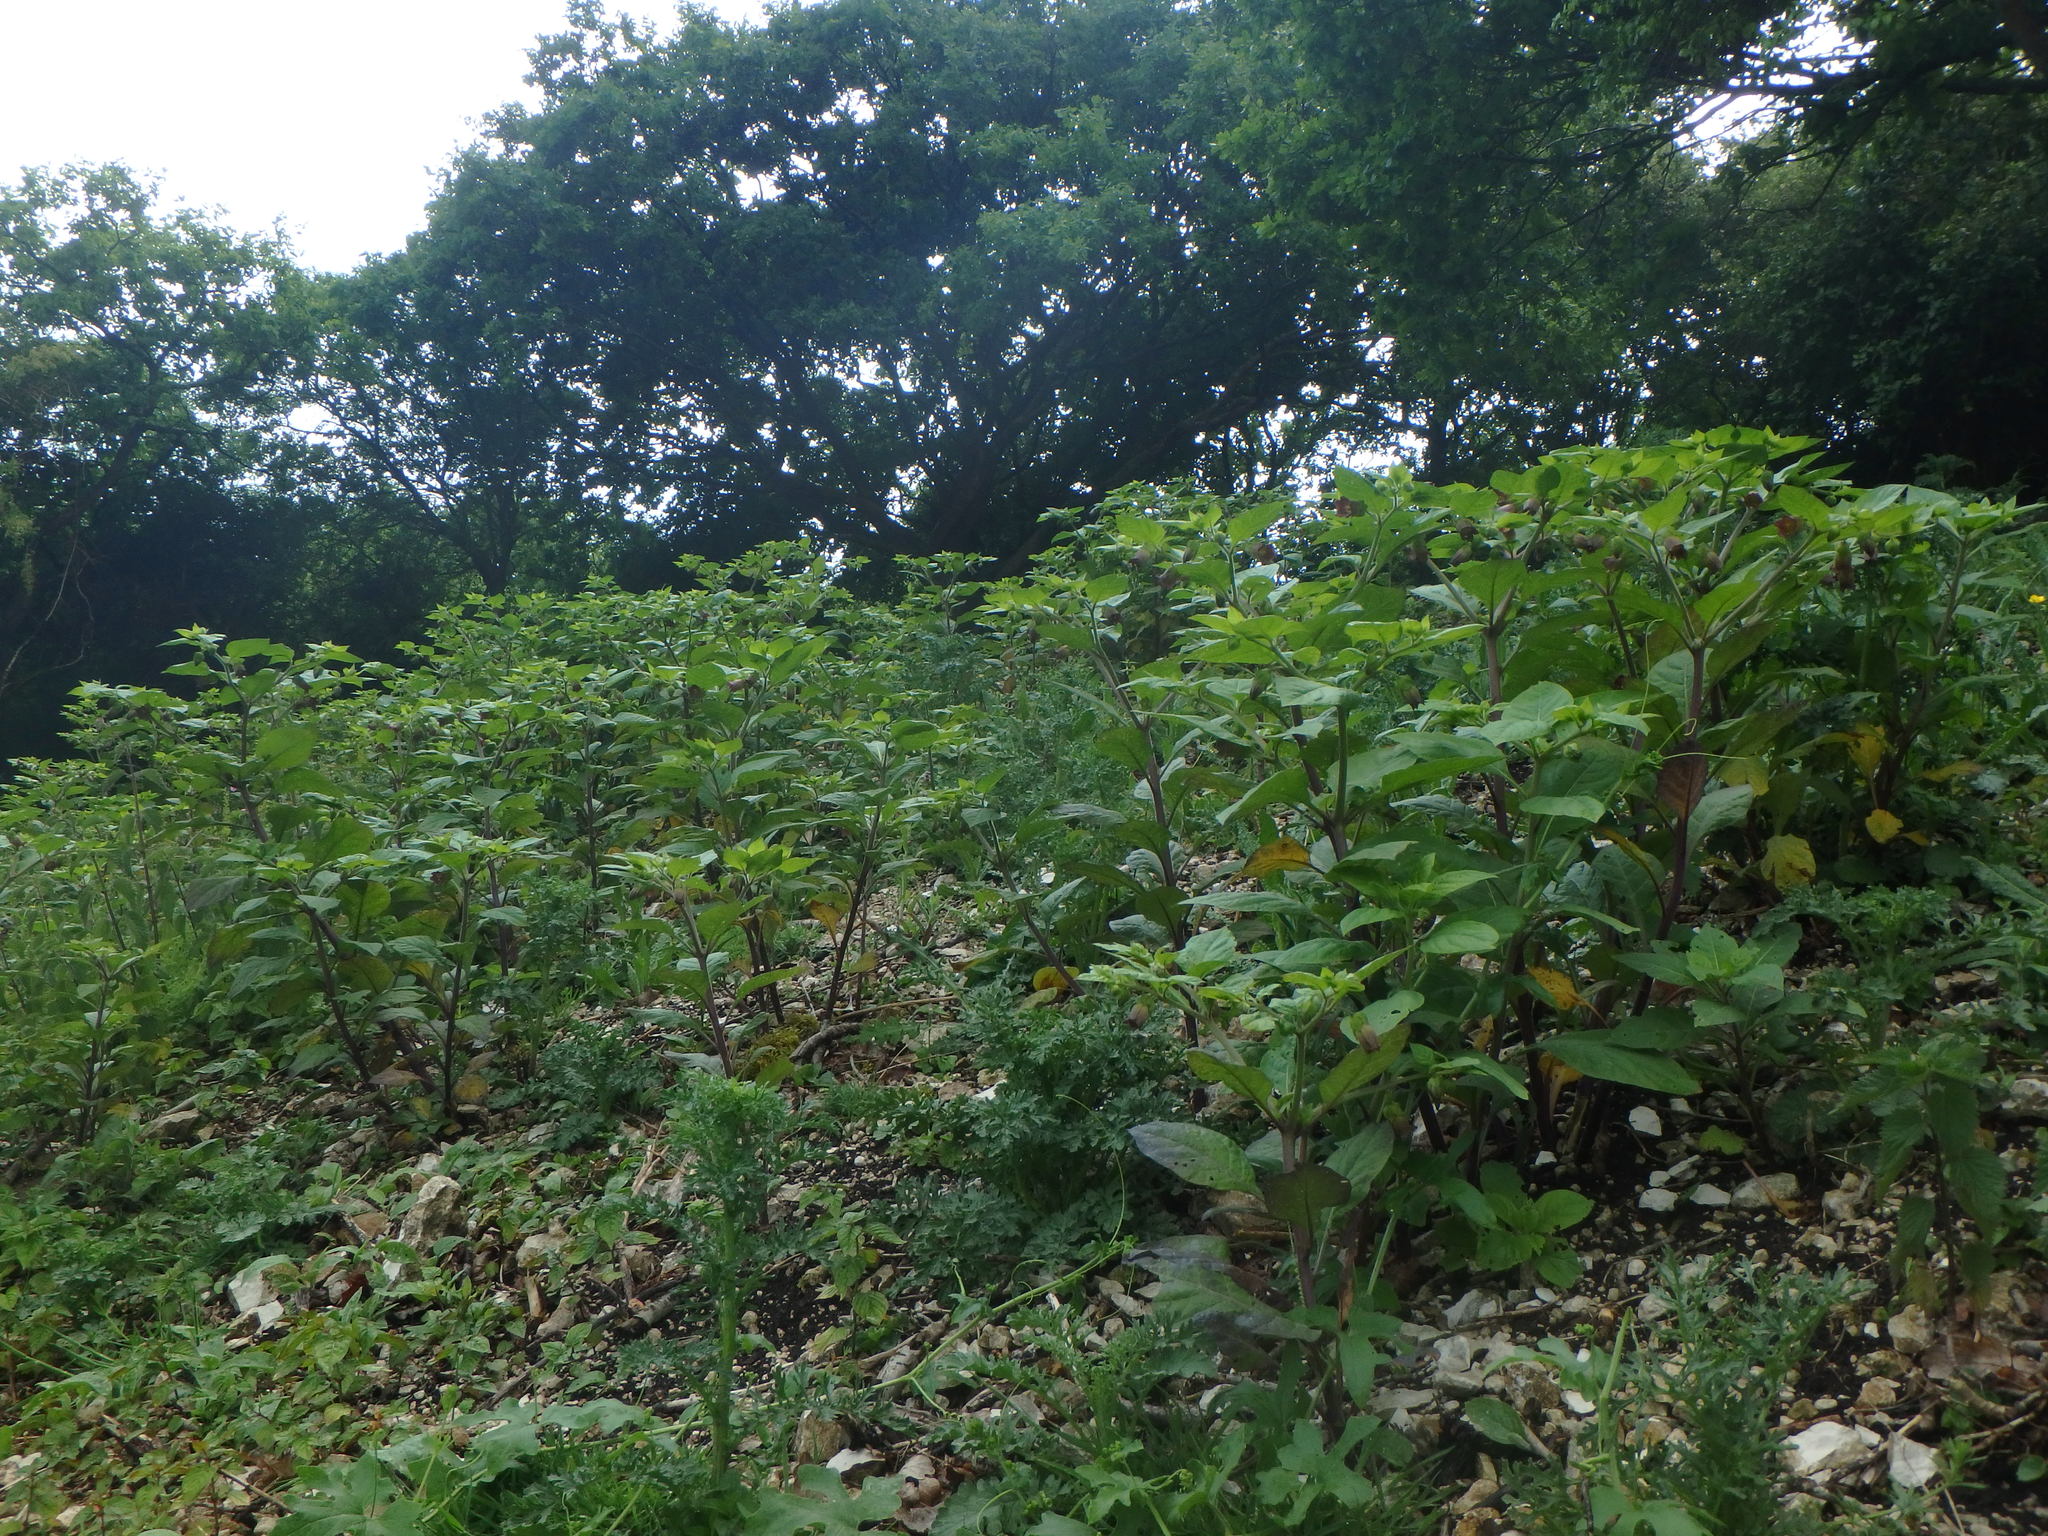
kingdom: Plantae
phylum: Tracheophyta
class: Magnoliopsida
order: Solanales
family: Solanaceae
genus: Atropa
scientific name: Atropa belladonna
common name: Deadly nightshade
